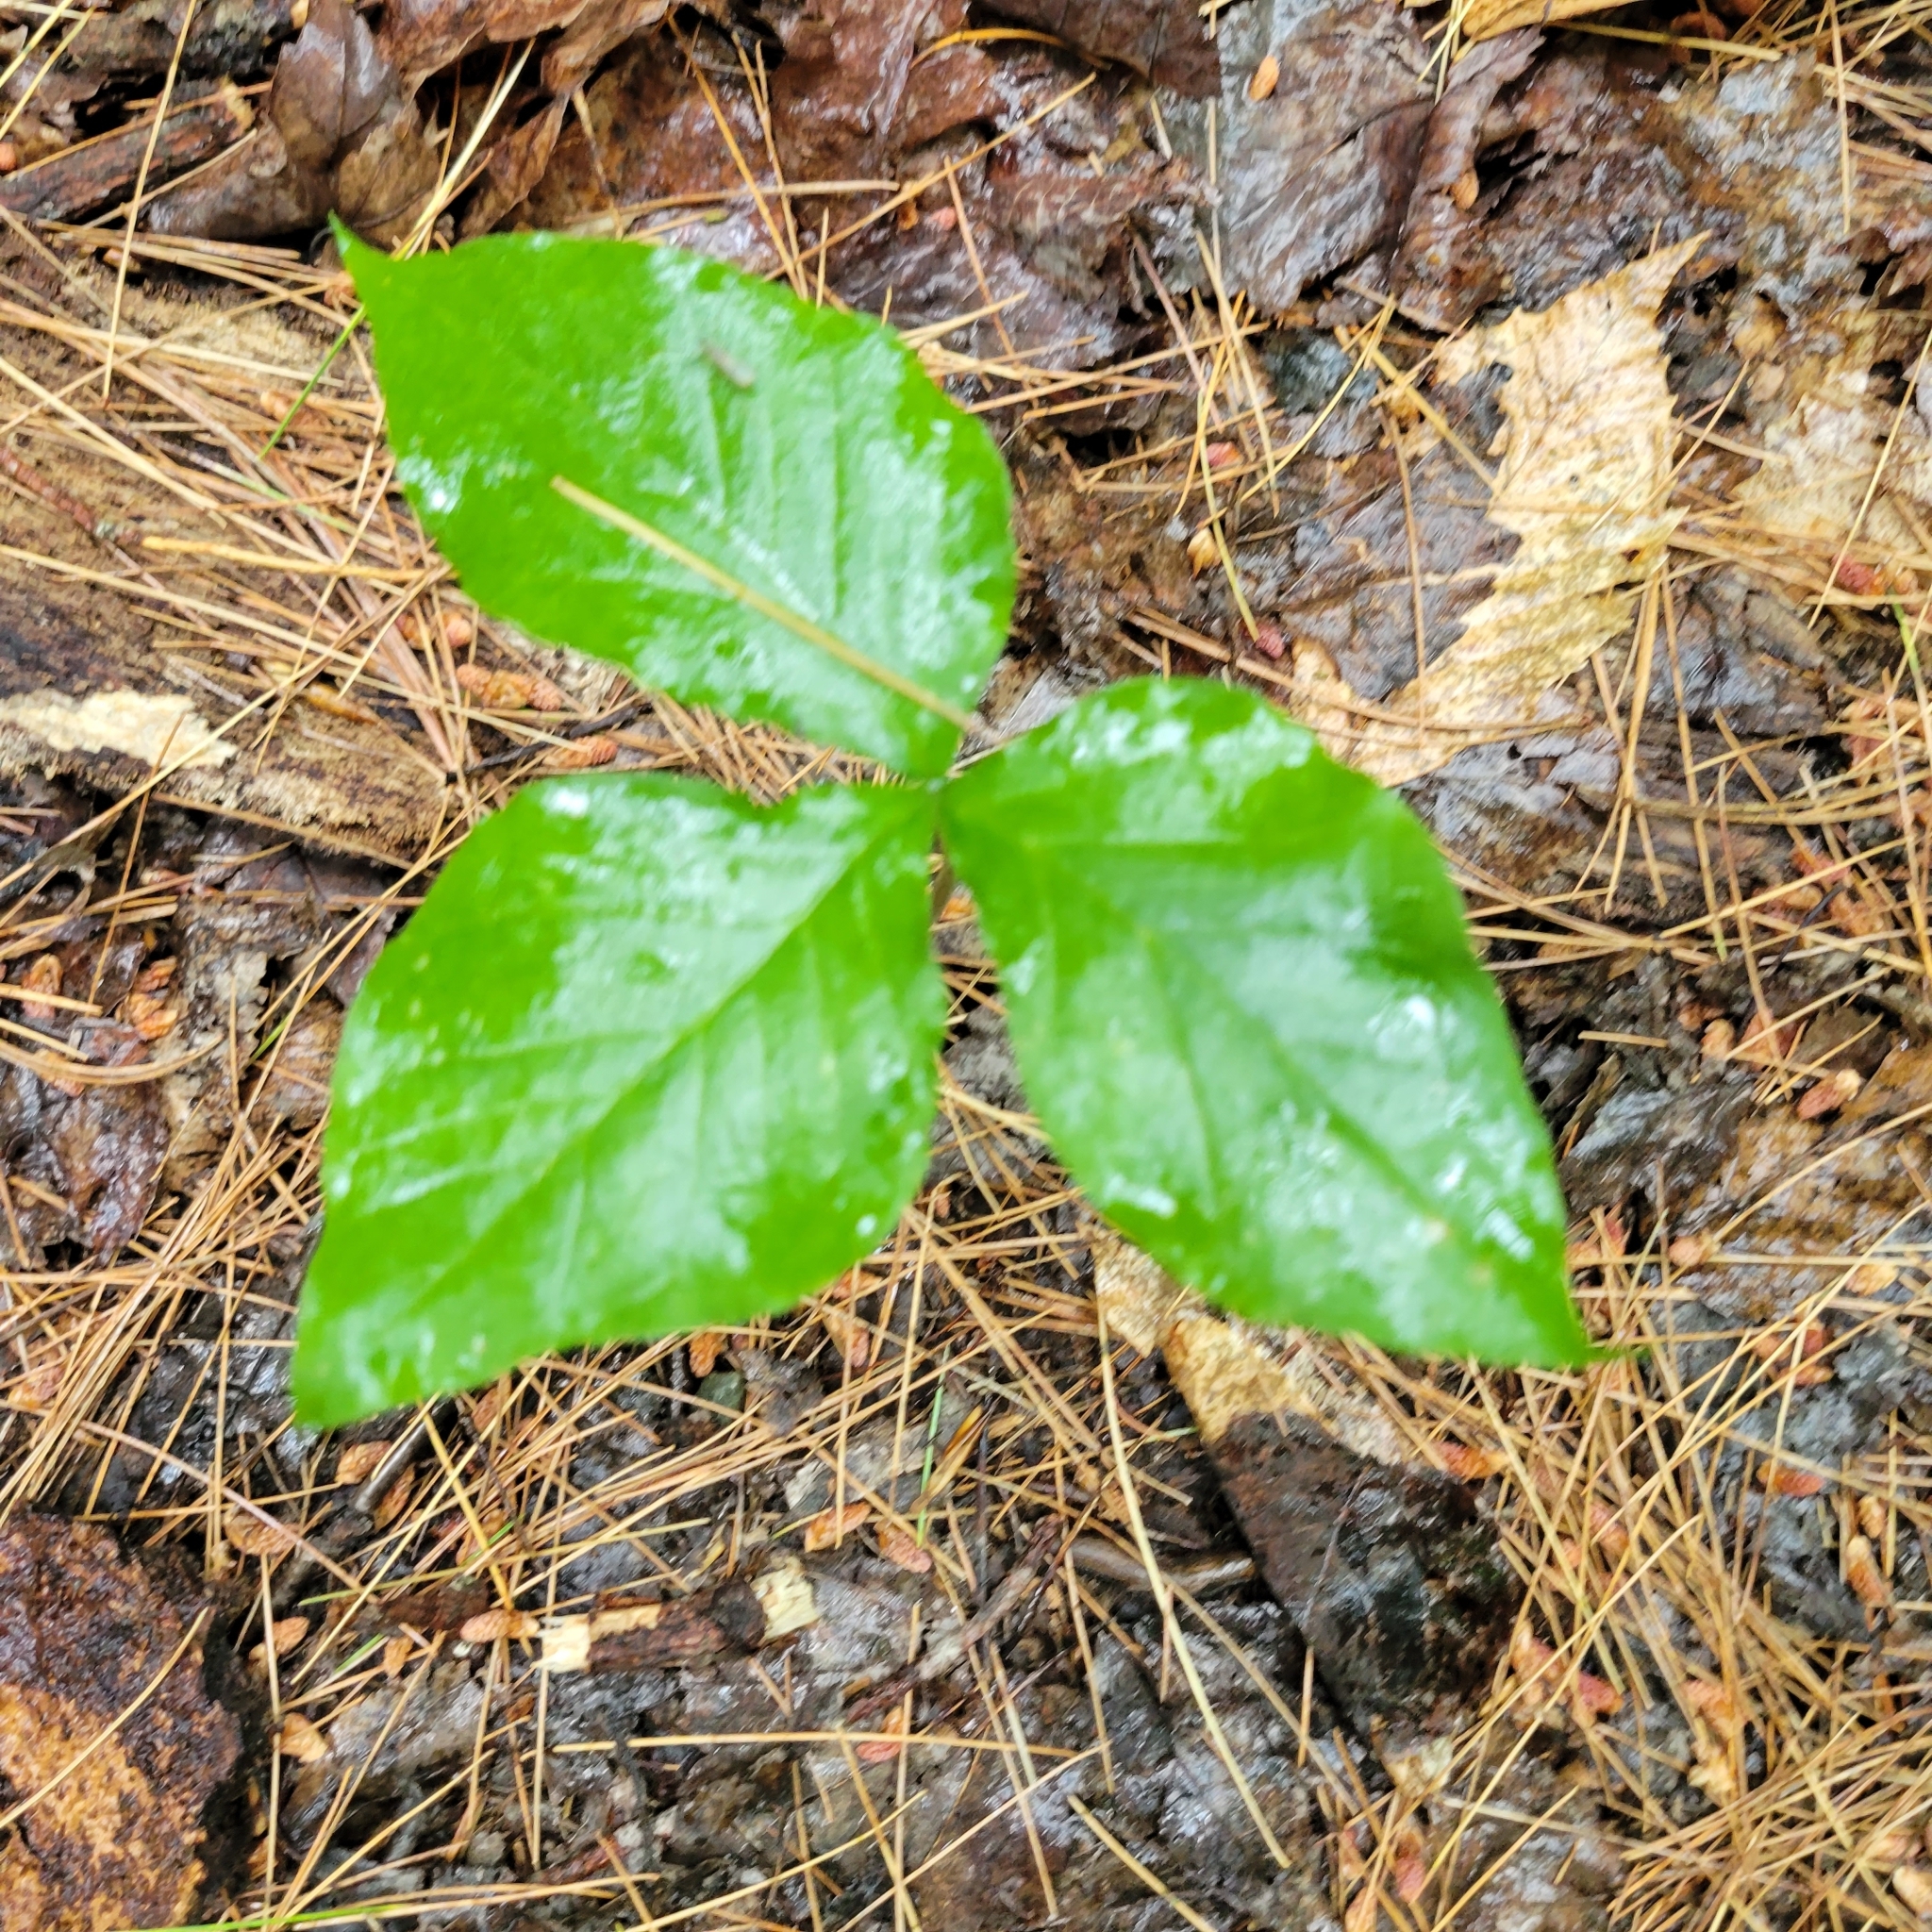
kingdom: Plantae
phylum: Tracheophyta
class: Liliopsida
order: Alismatales
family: Araceae
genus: Arisaema
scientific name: Arisaema triphyllum
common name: Jack-in-the-pulpit
